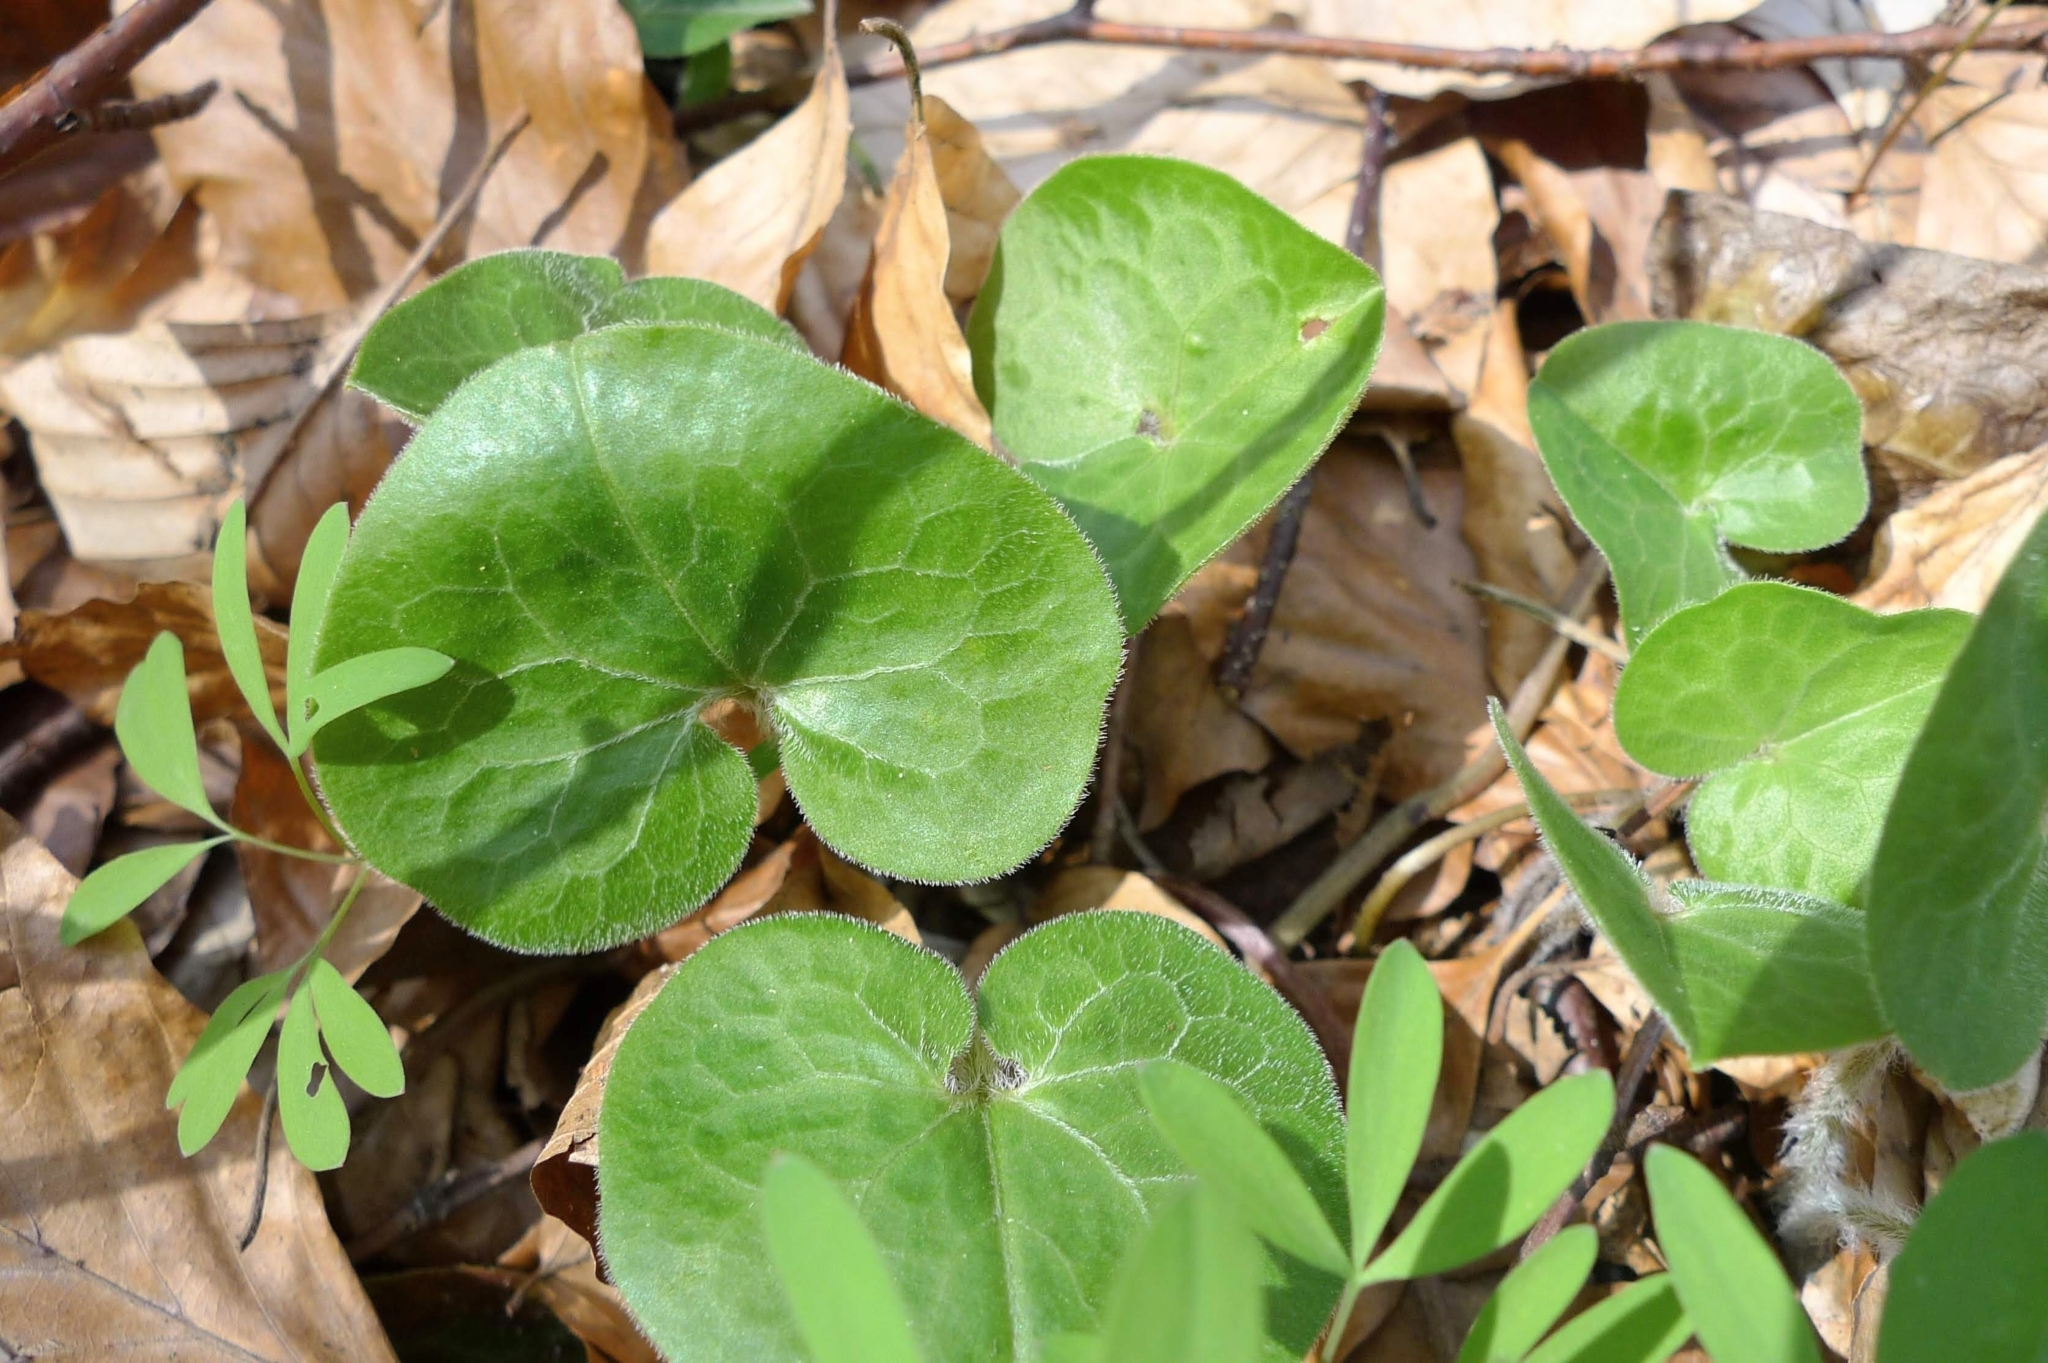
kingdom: Plantae
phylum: Tracheophyta
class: Magnoliopsida
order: Piperales
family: Aristolochiaceae
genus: Asarum
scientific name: Asarum europaeum
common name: Asarabacca
